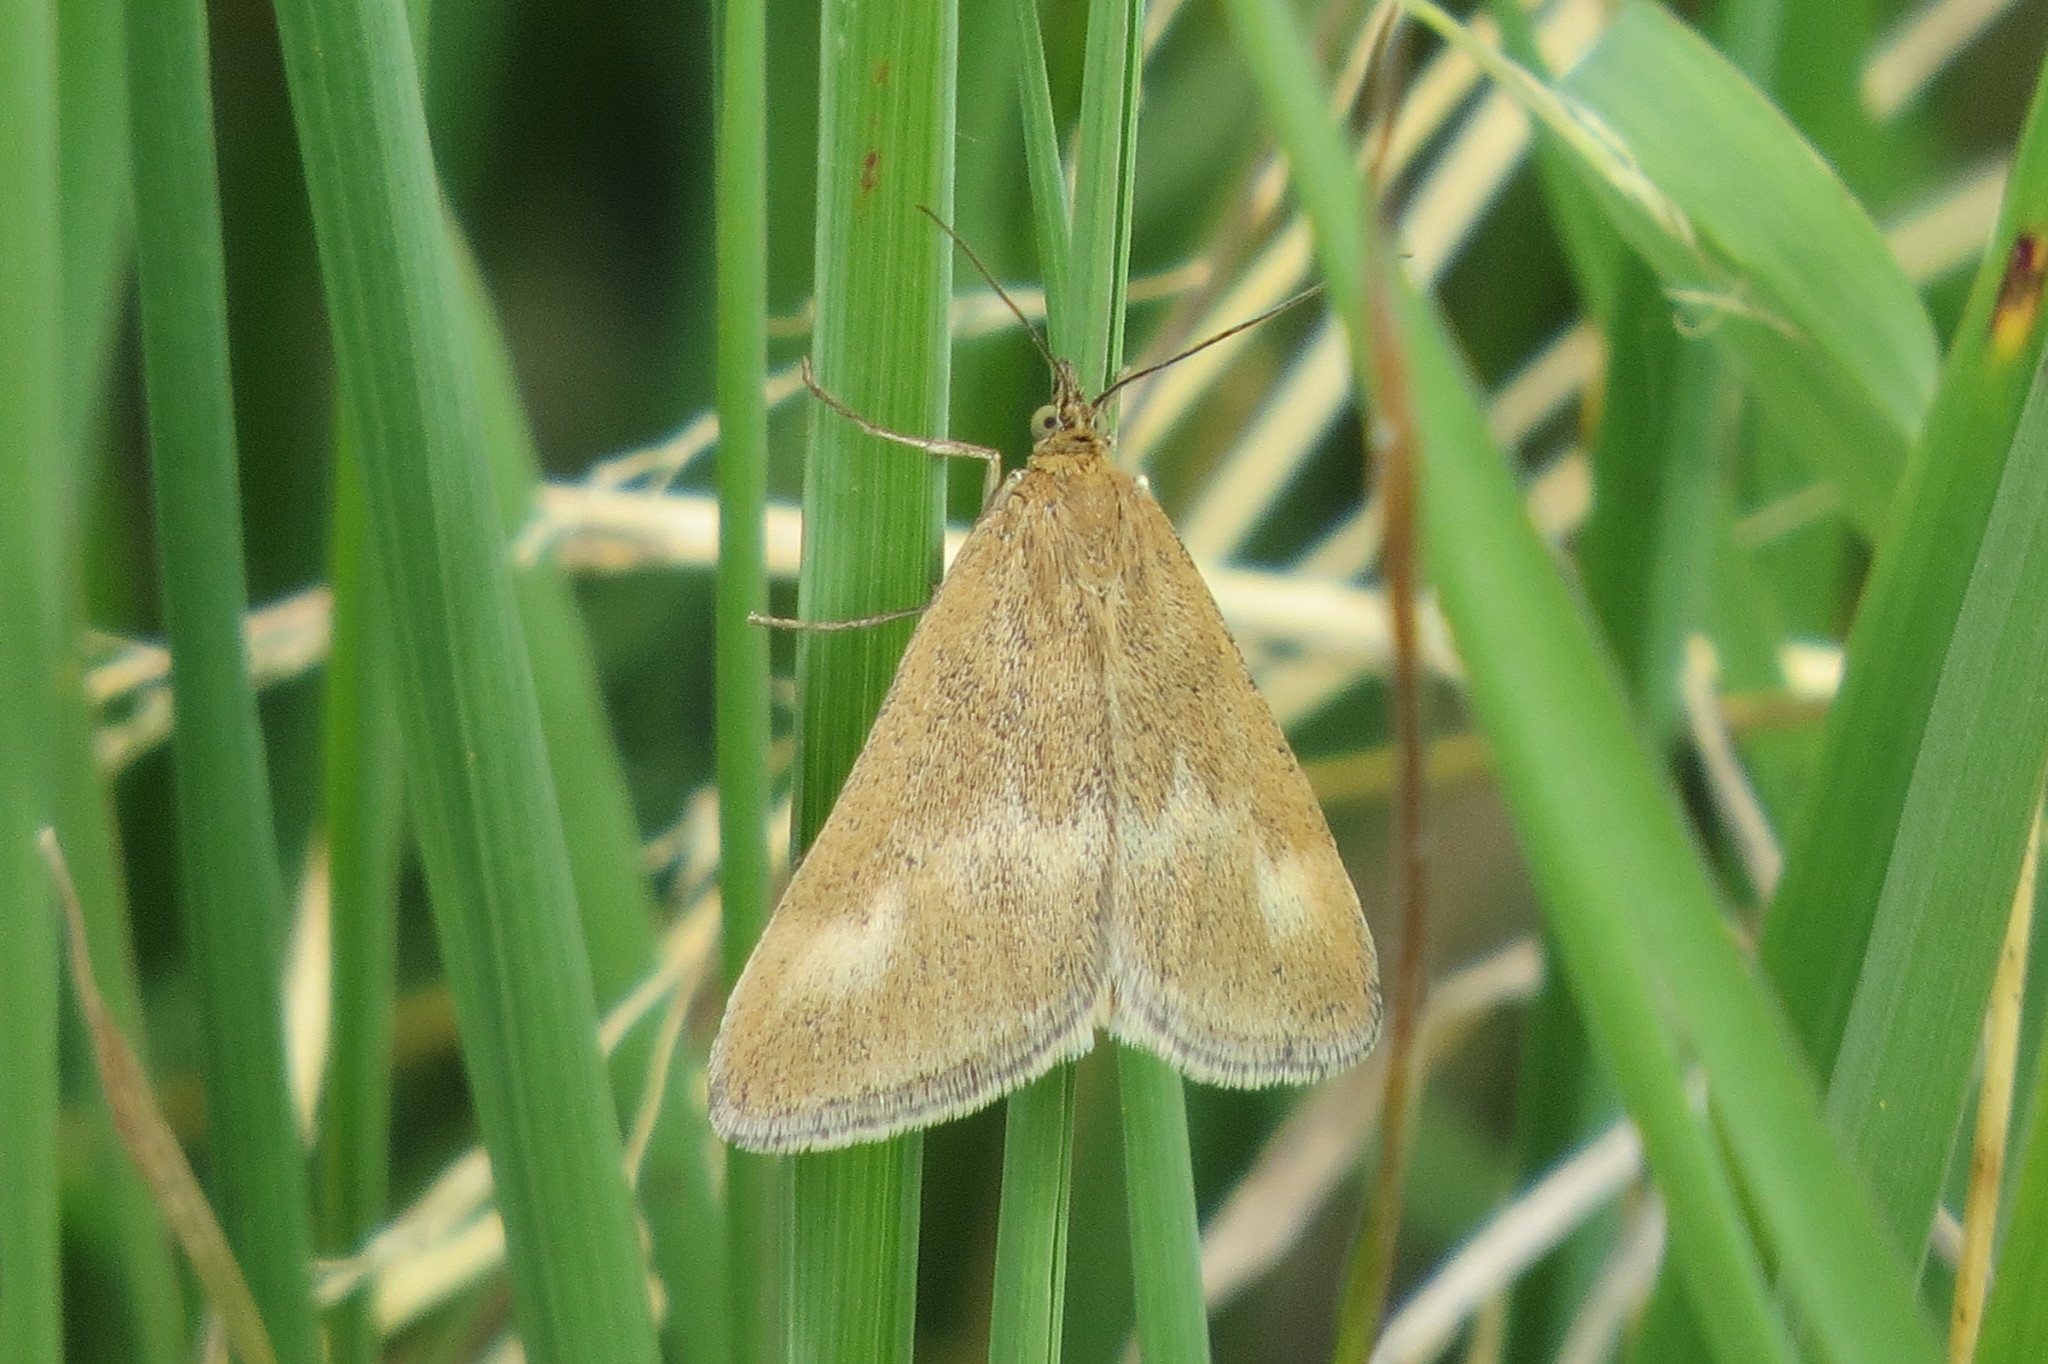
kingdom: Animalia
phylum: Arthropoda
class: Insecta
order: Lepidoptera
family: Crambidae
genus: Pyrausta
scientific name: Pyrausta aerealis
